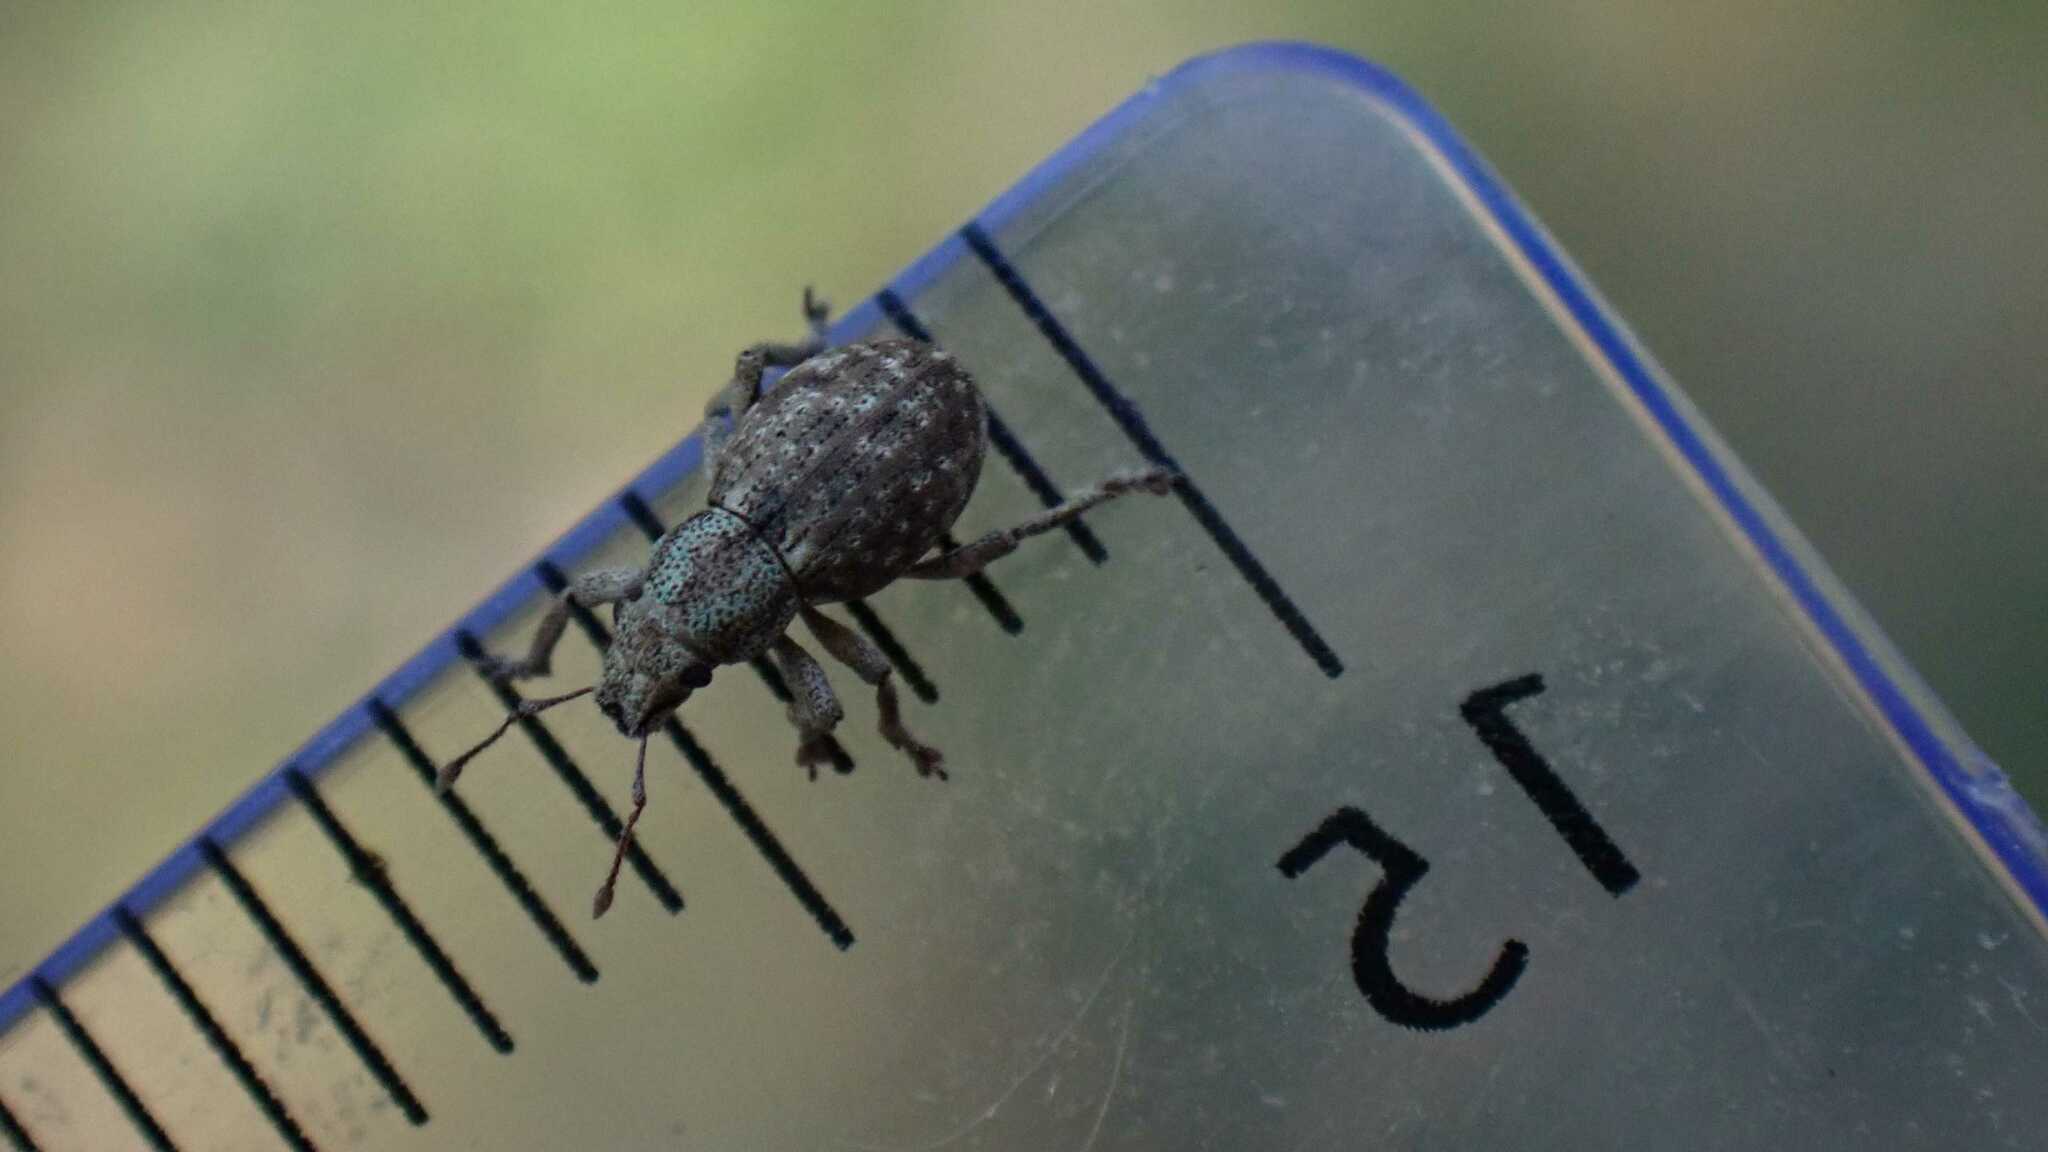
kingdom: Animalia
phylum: Arthropoda
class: Insecta
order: Coleoptera
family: Curculionidae
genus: Strophosoma
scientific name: Strophosoma capitatum
